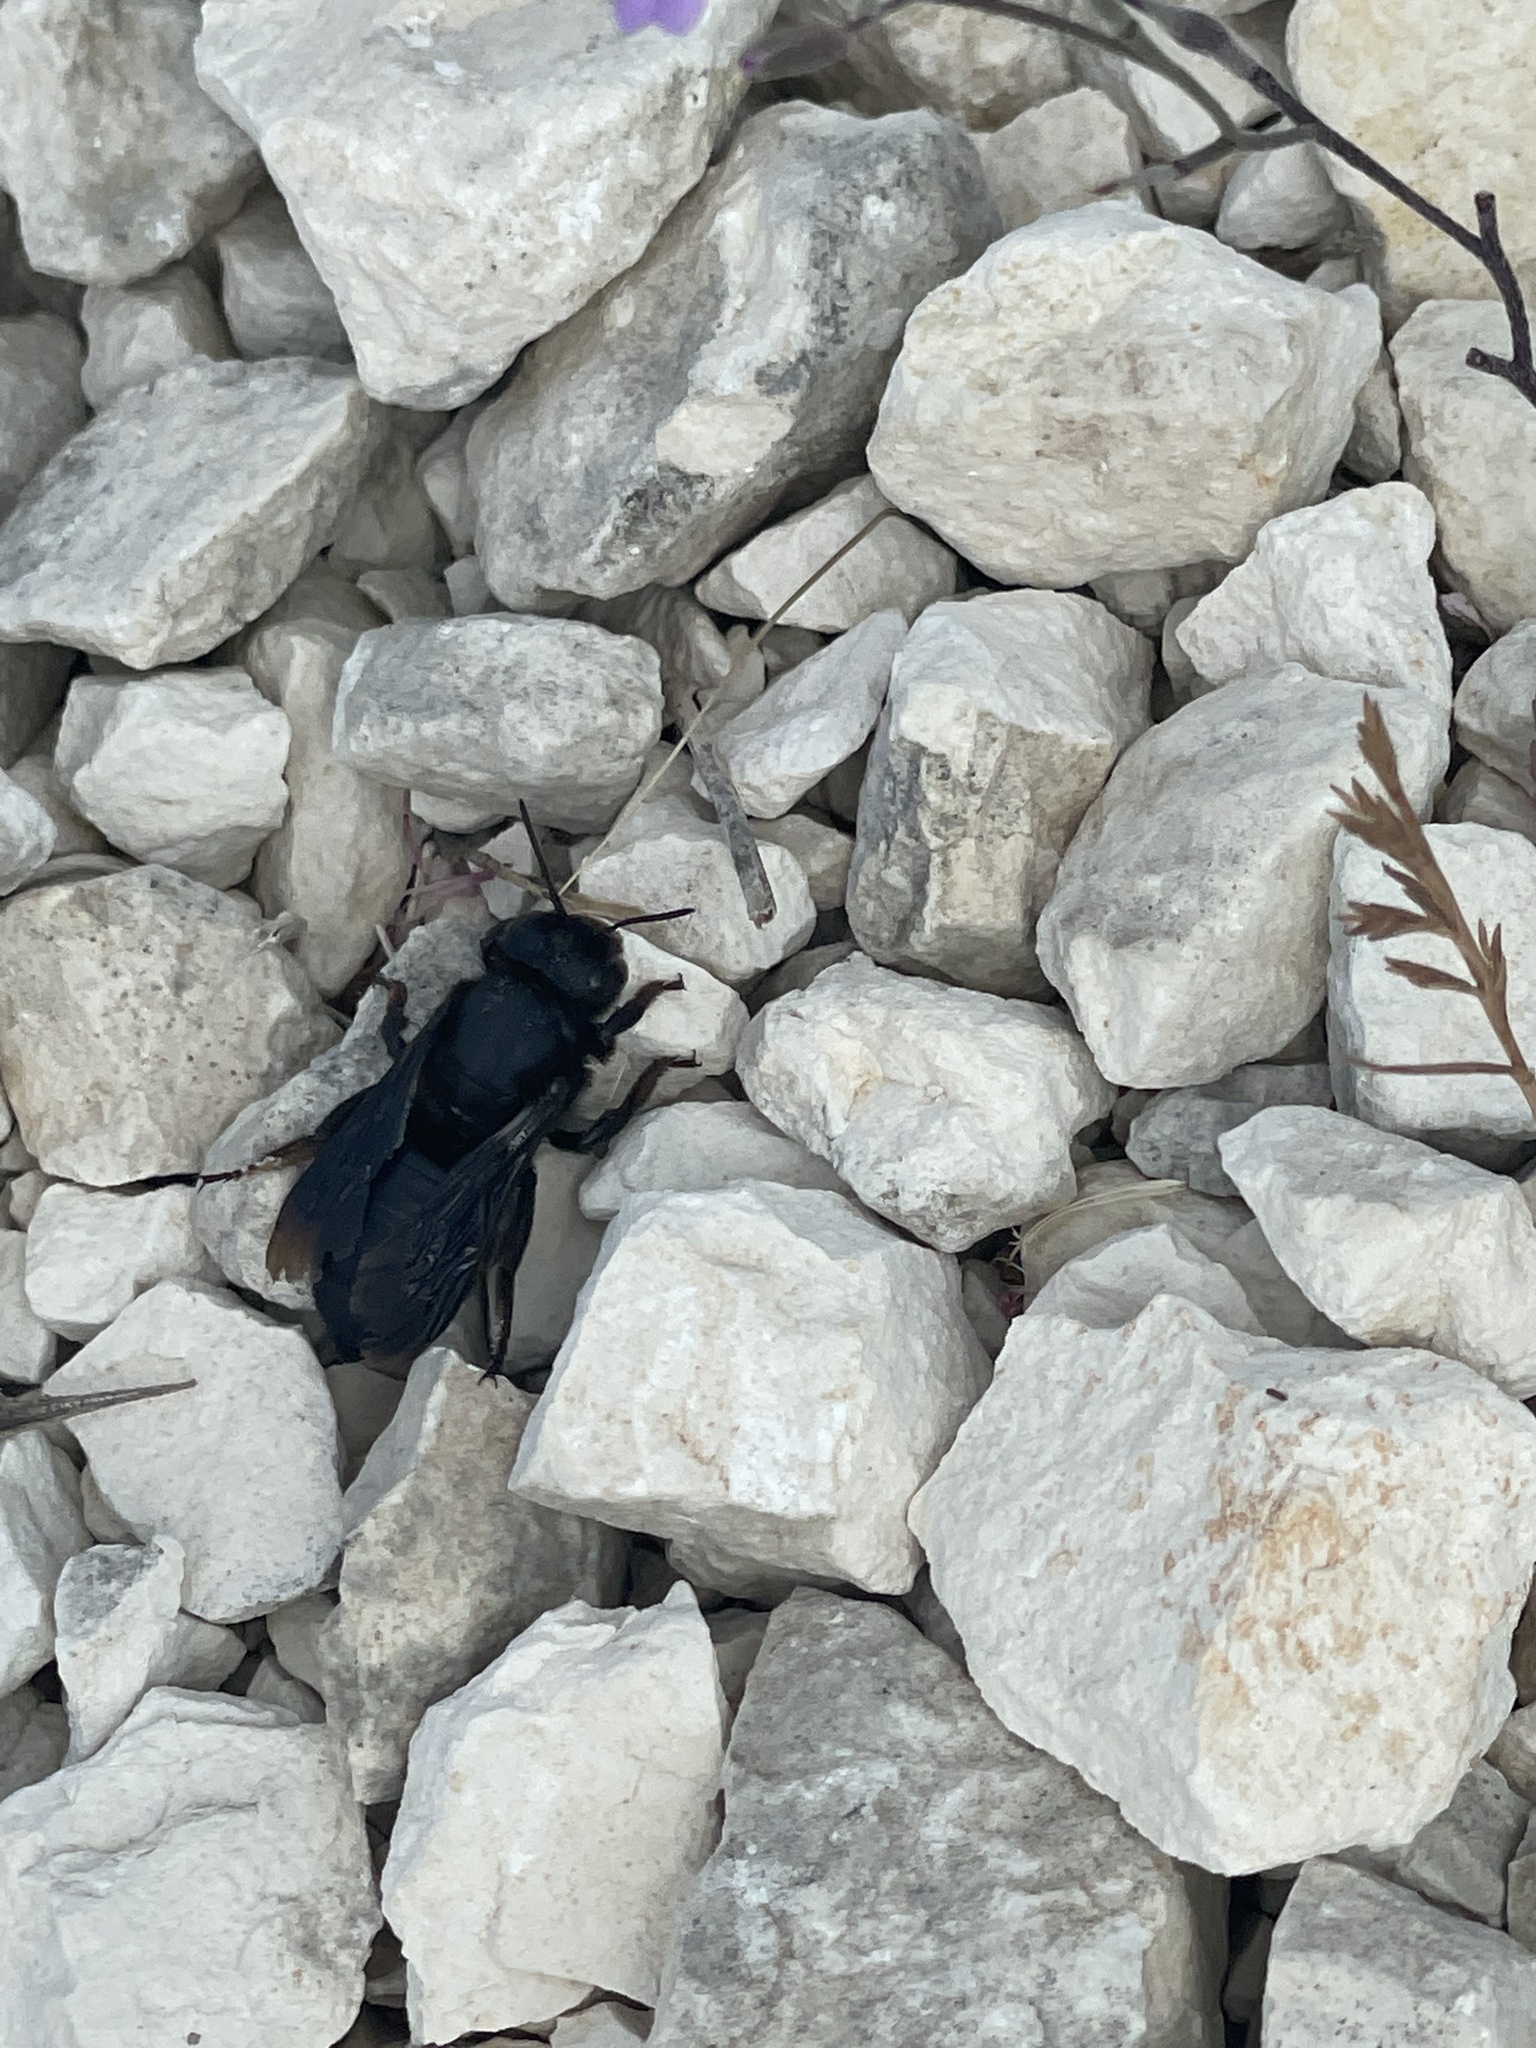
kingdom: Animalia
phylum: Arthropoda
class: Insecta
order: Hymenoptera
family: Megachilidae
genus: Megachile
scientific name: Megachile parietina
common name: Black mud bee
